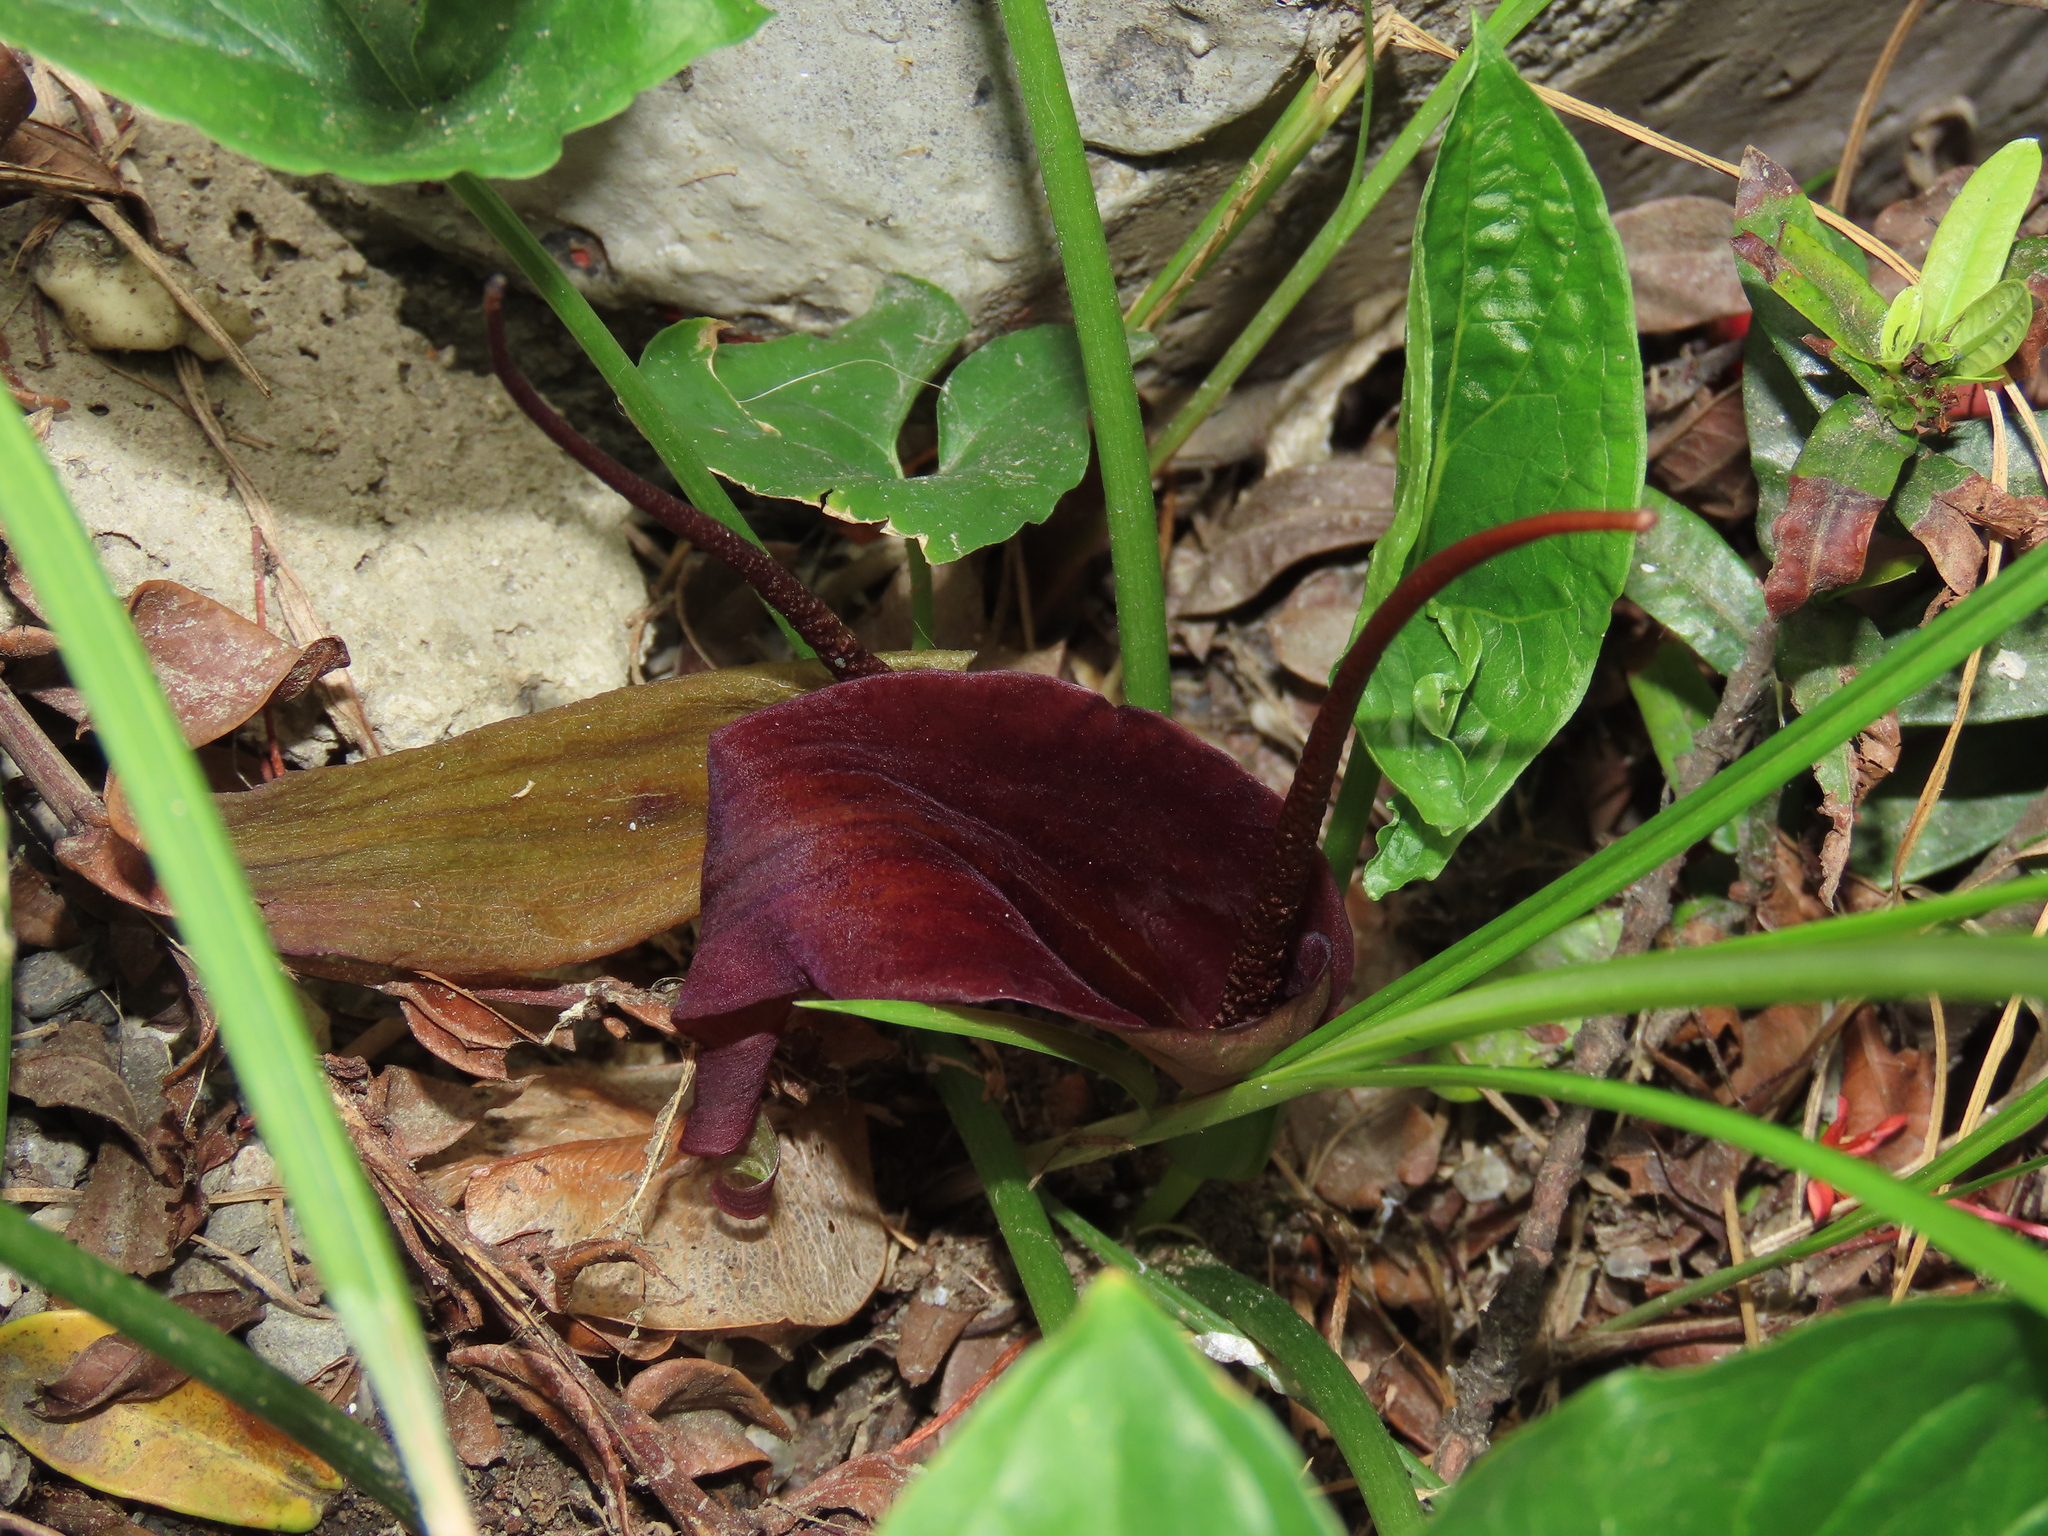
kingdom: Plantae
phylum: Tracheophyta
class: Liliopsida
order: Alismatales
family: Araceae
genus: Typhonium
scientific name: Typhonium blumei
